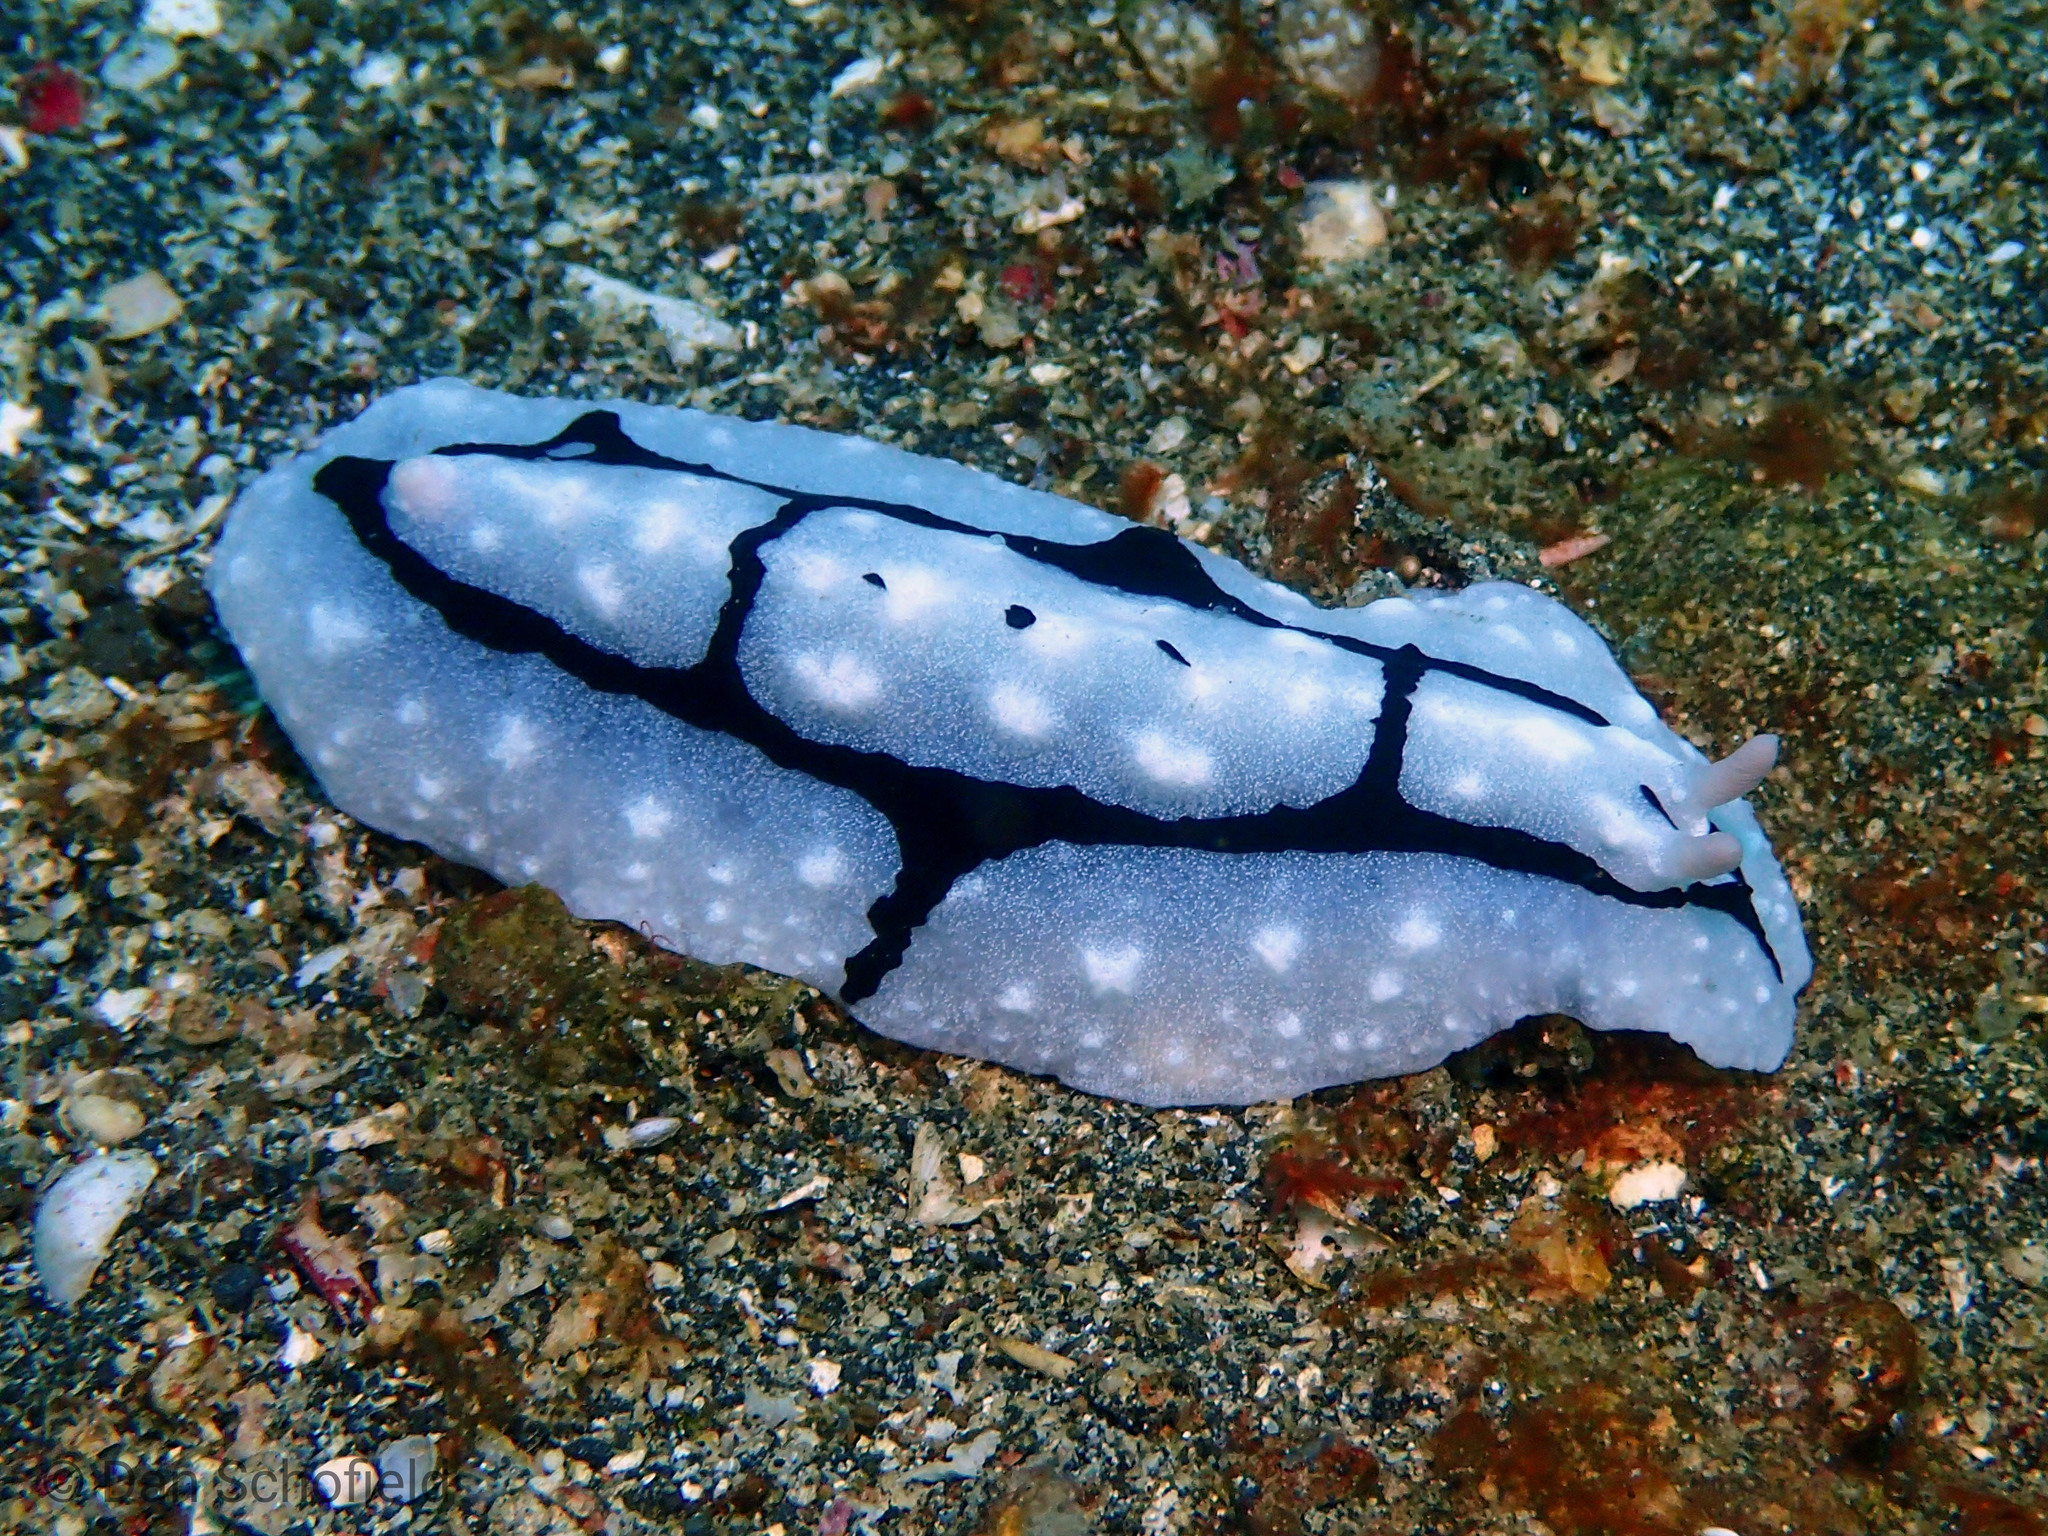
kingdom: Animalia
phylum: Mollusca
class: Gastropoda
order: Nudibranchia
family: Phyllidiidae
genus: Phyllidiopsis
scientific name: Phyllidiopsis shireenae
